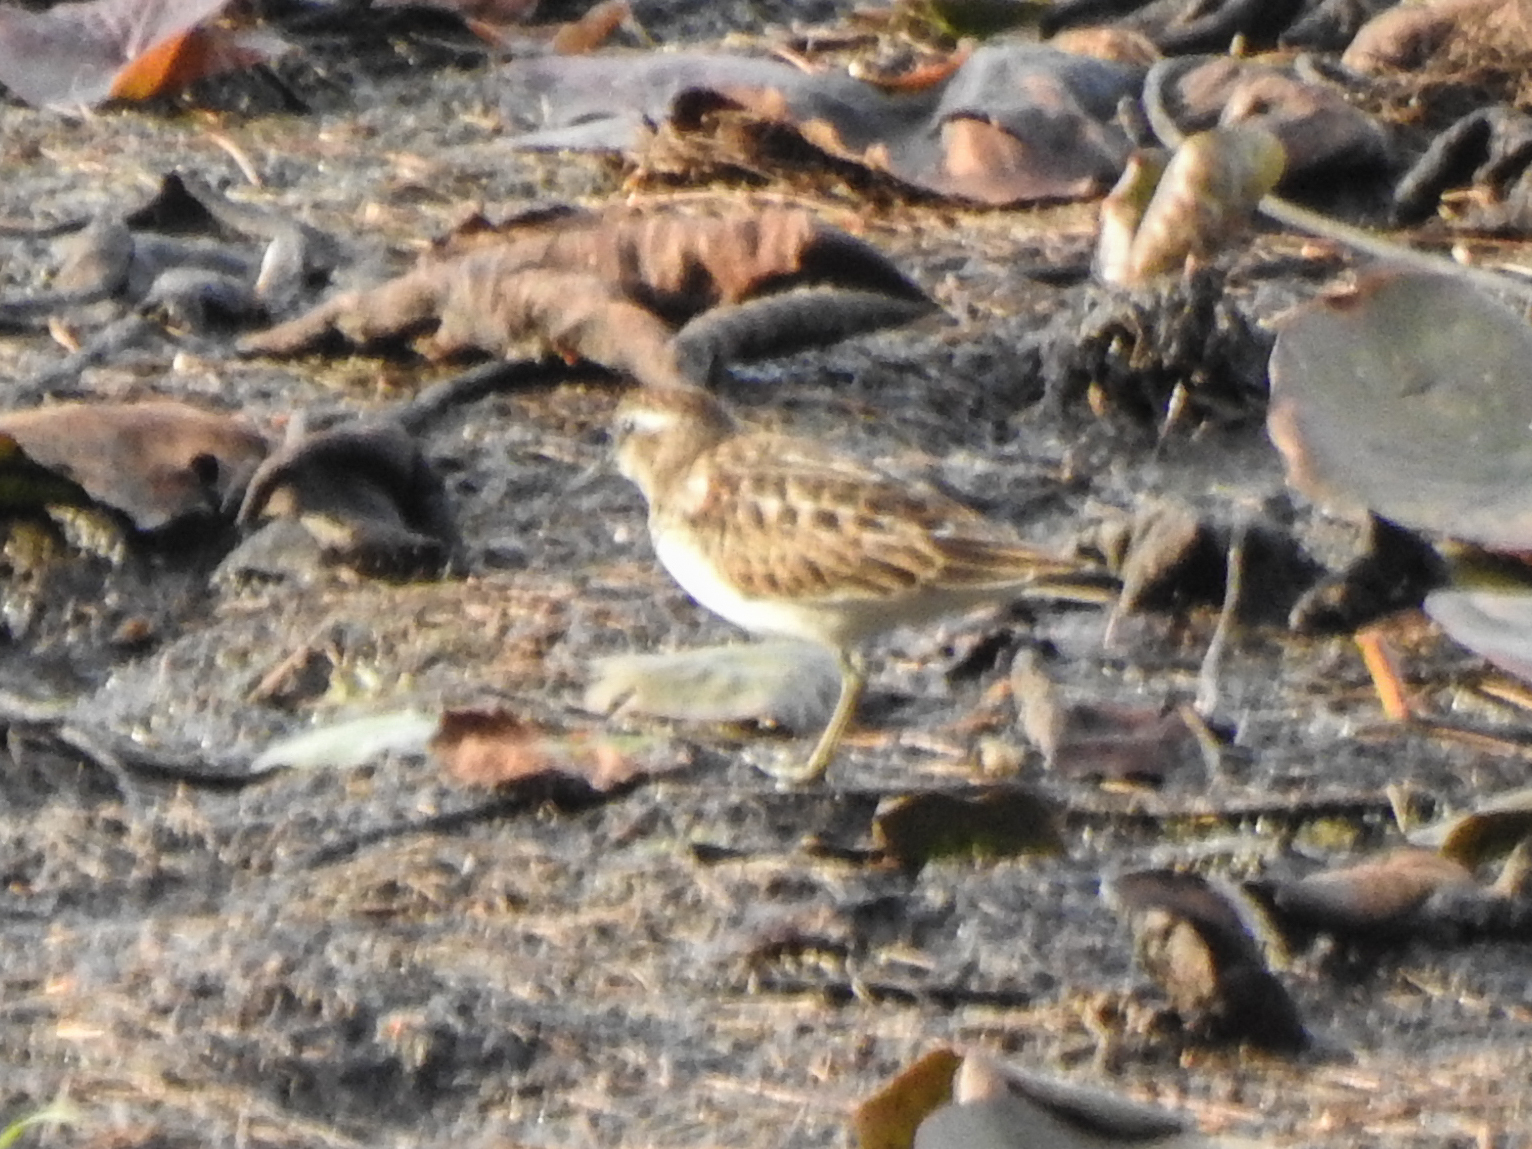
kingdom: Animalia
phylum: Chordata
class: Aves
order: Charadriiformes
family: Scolopacidae
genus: Calidris
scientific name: Calidris minutilla
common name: Least sandpiper
